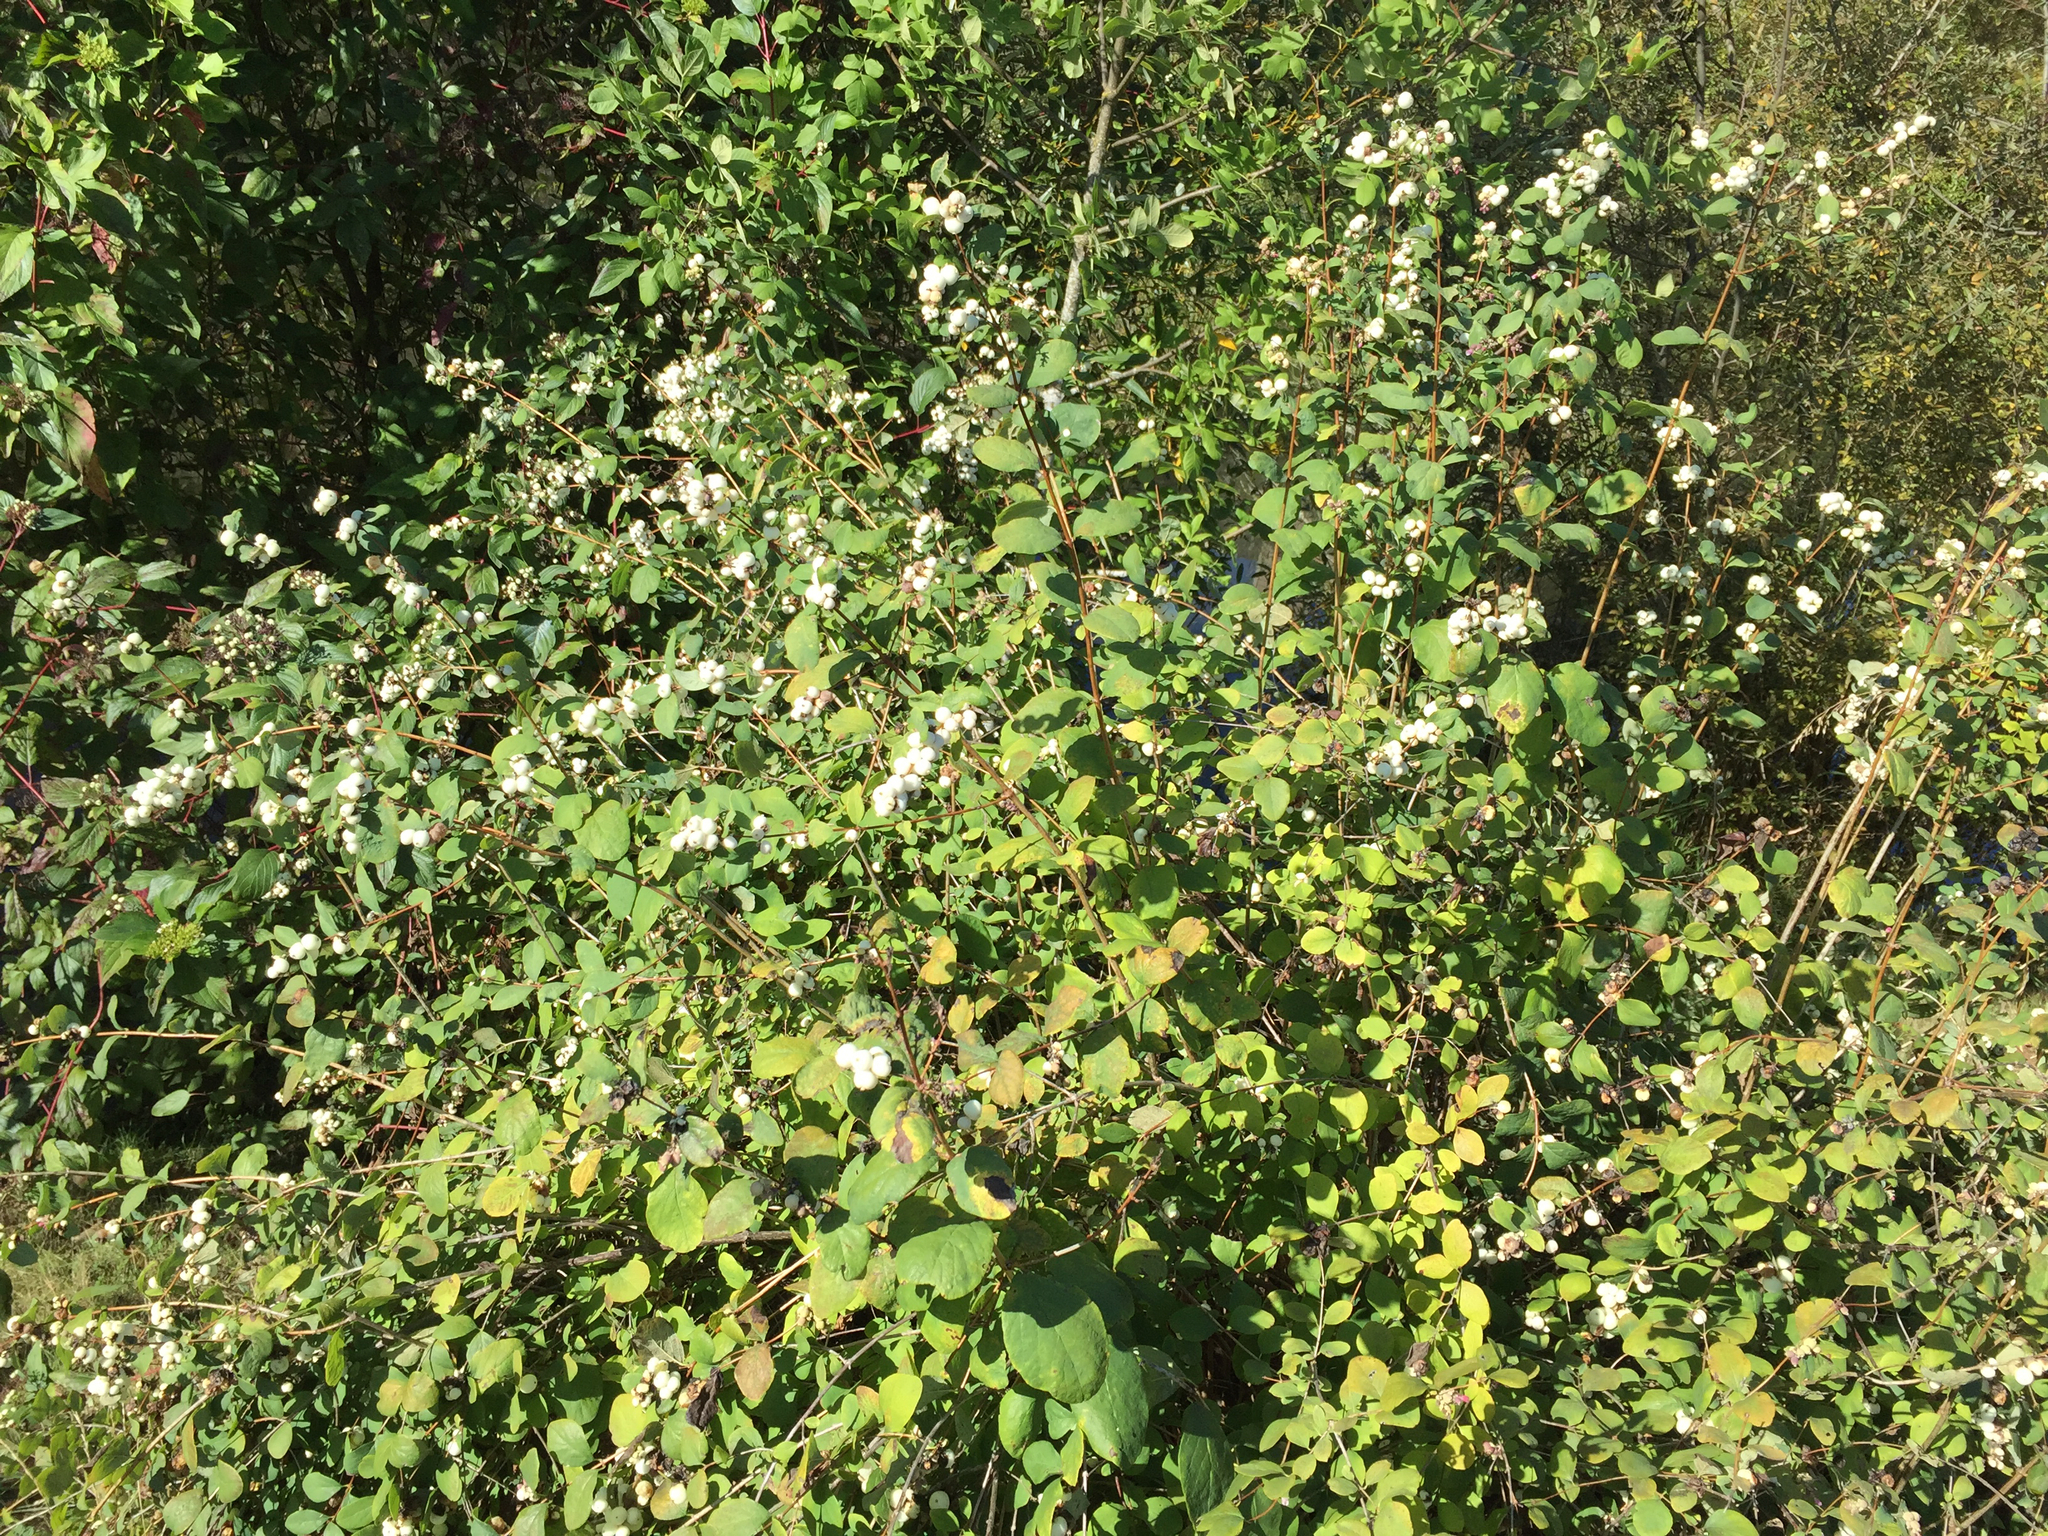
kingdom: Plantae
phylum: Tracheophyta
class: Magnoliopsida
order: Dipsacales
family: Caprifoliaceae
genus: Symphoricarpos
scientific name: Symphoricarpos albus
